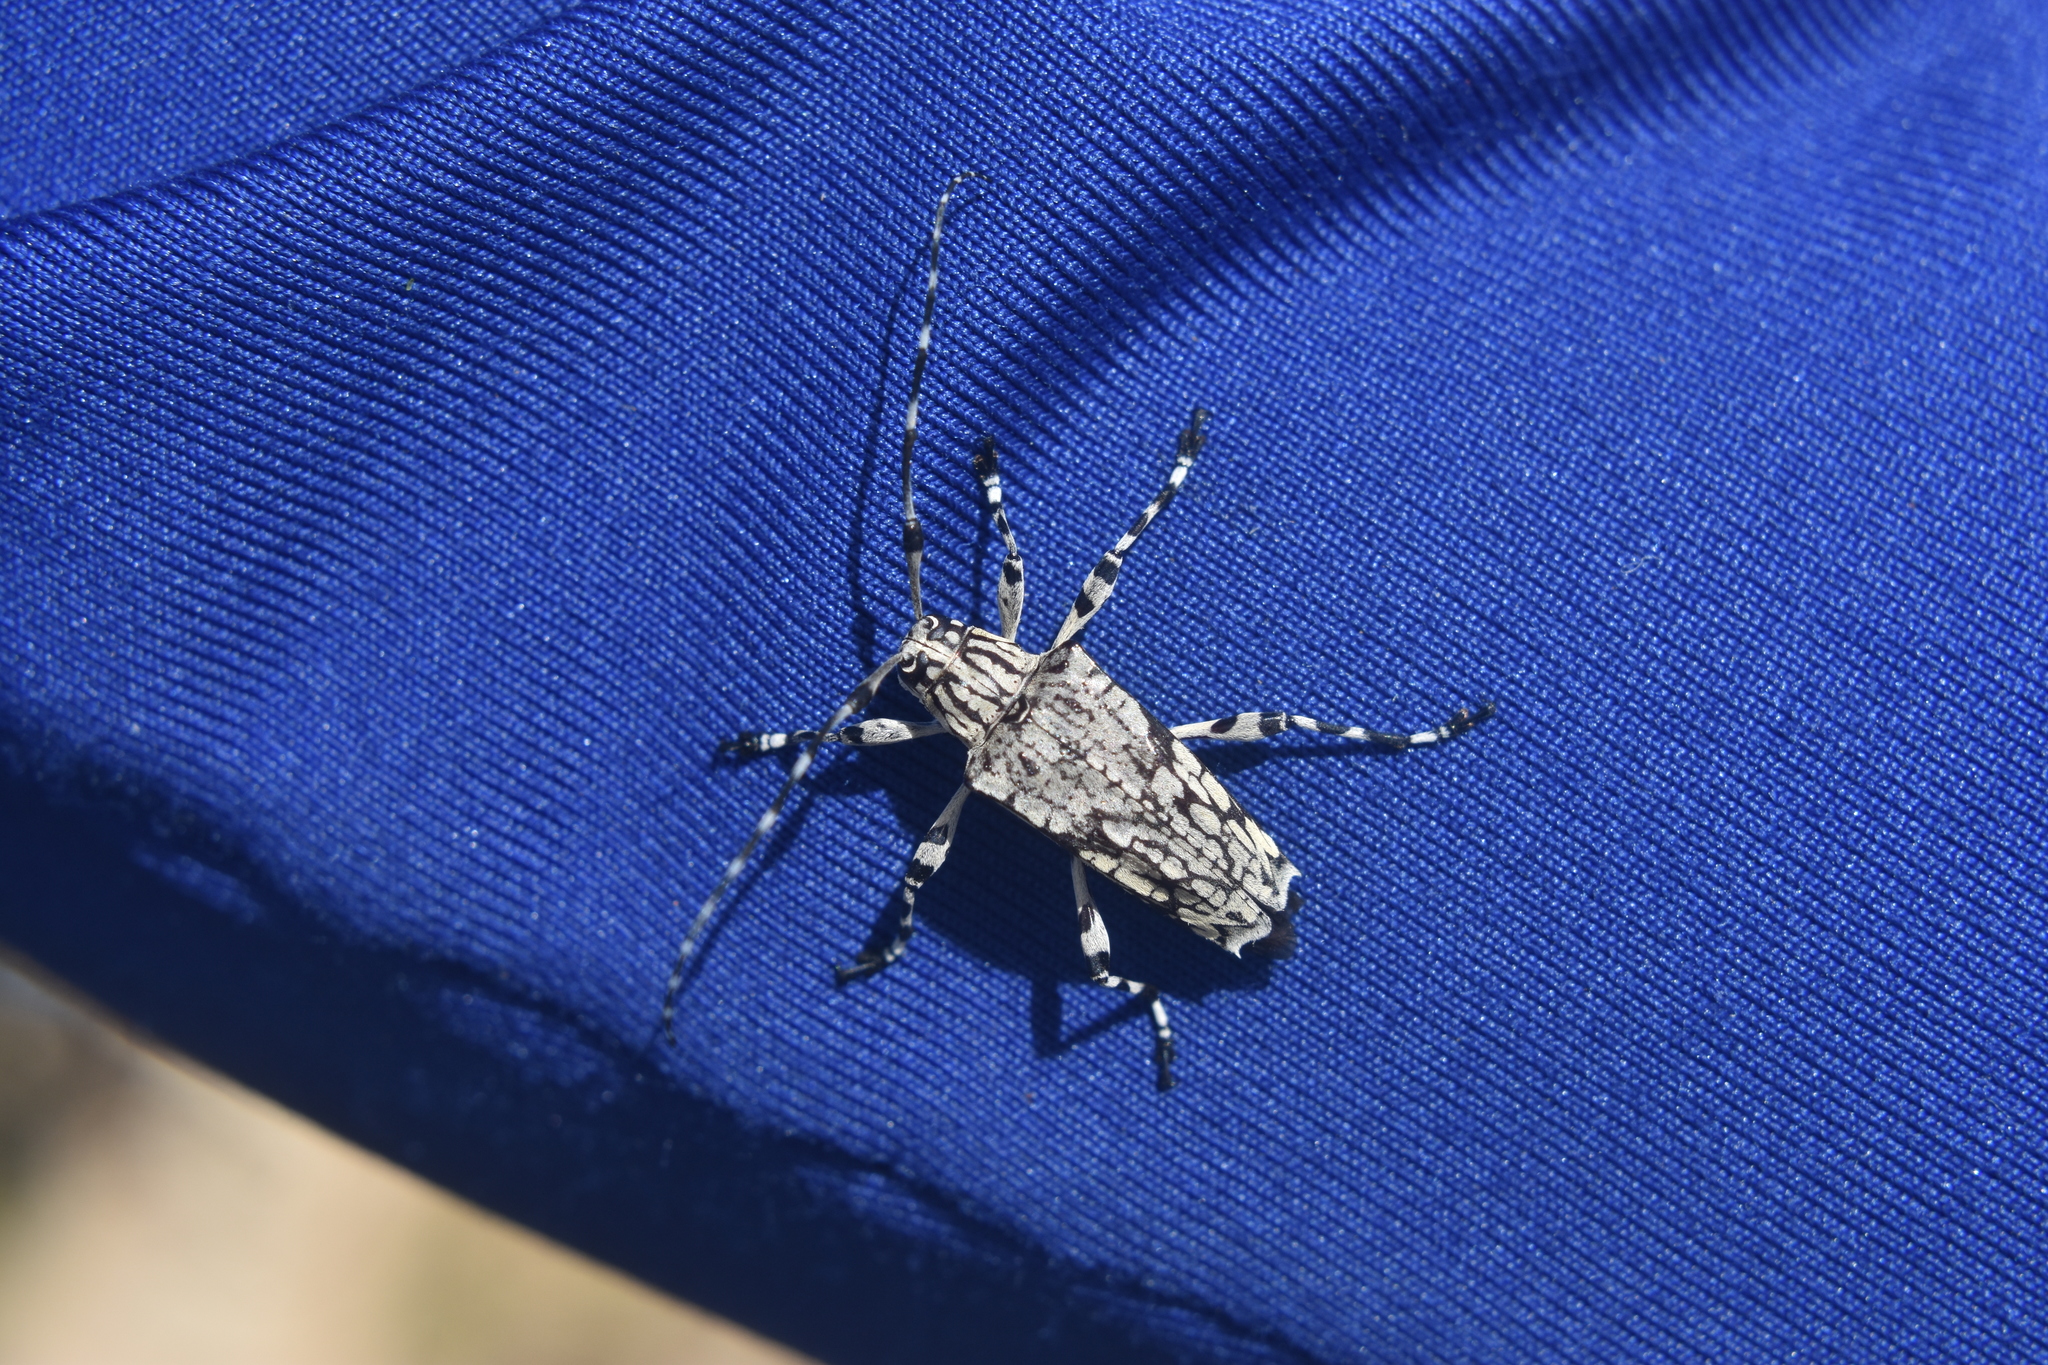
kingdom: Animalia
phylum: Arthropoda
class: Insecta
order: Coleoptera
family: Cerambycidae
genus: Lophobothea
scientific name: Lophobothea reticulata
